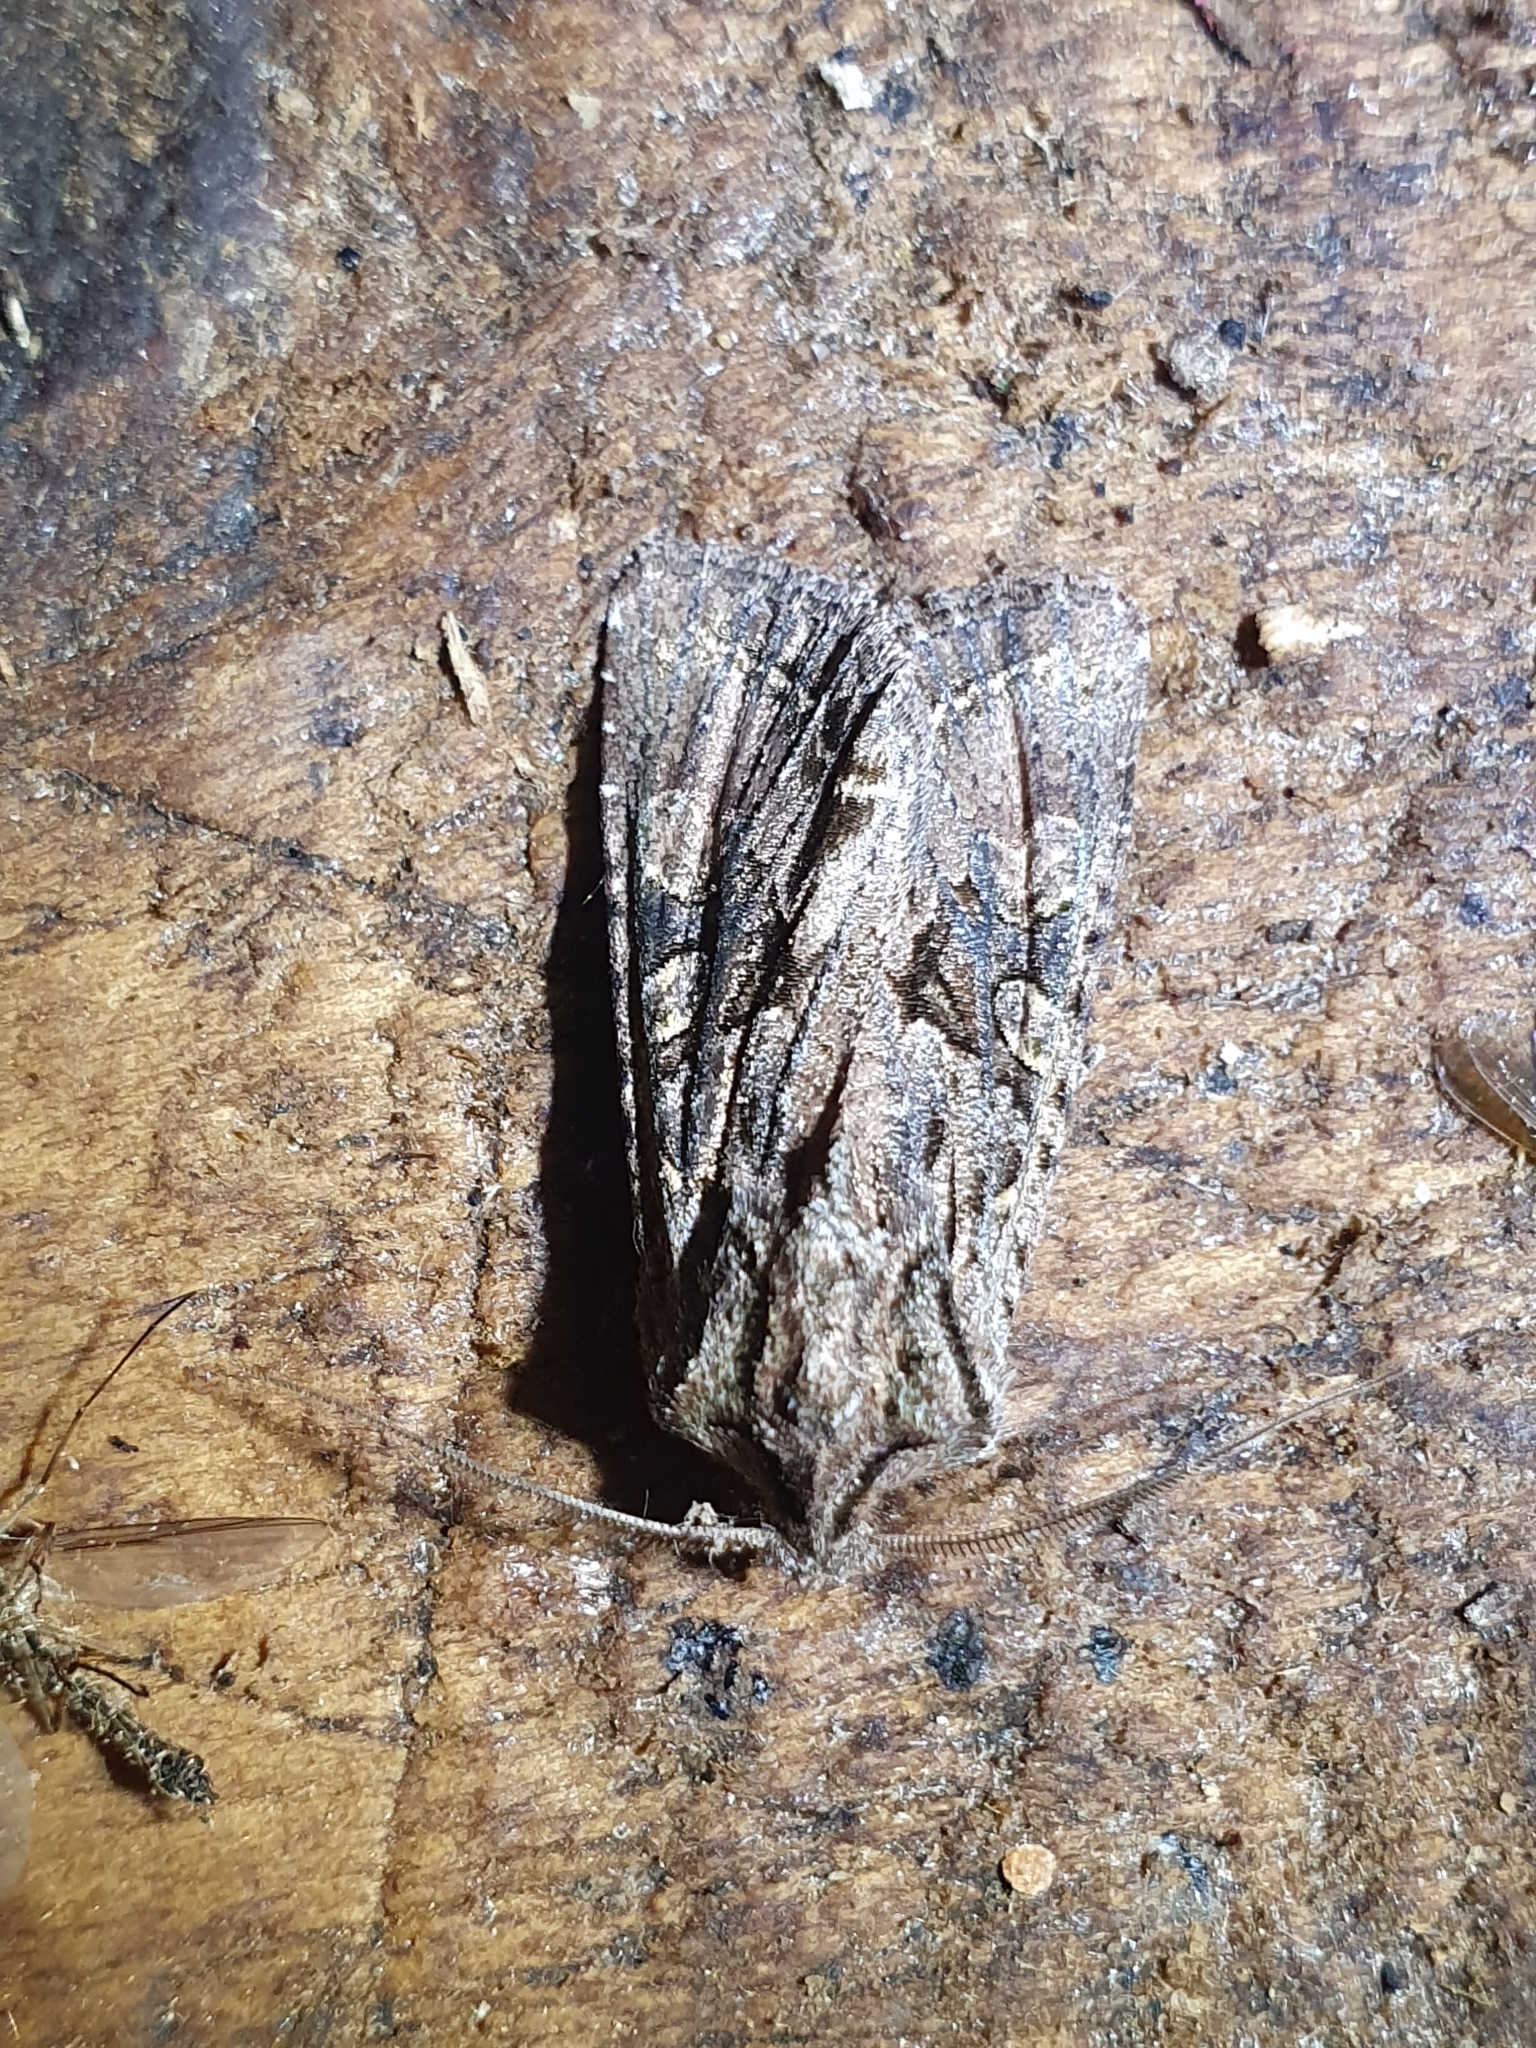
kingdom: Animalia
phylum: Arthropoda
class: Insecta
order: Lepidoptera
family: Noctuidae
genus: Ichneutica
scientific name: Ichneutica mutans
